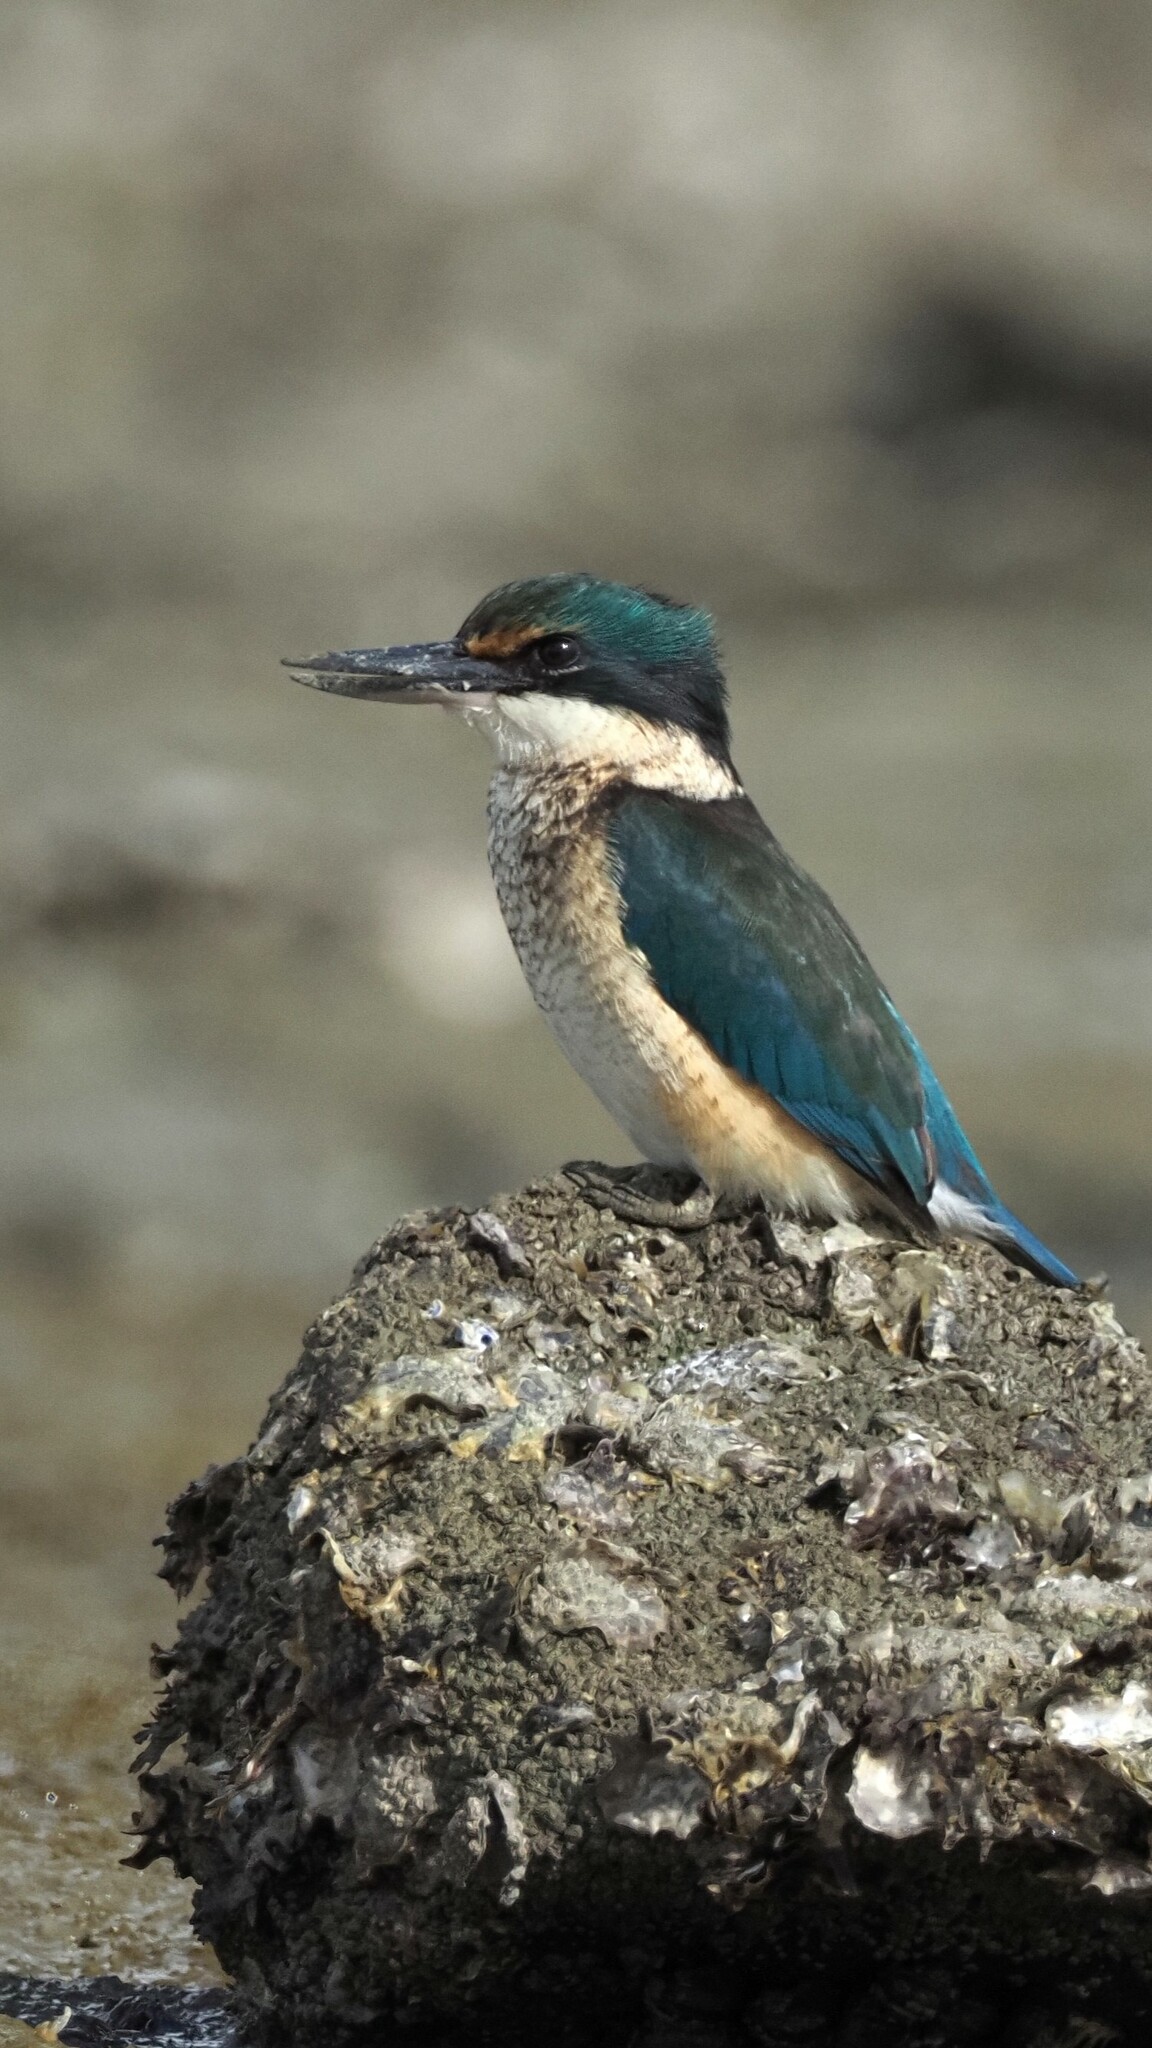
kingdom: Animalia
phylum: Chordata
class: Aves
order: Coraciiformes
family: Alcedinidae
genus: Todiramphus
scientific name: Todiramphus sanctus
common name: Sacred kingfisher
